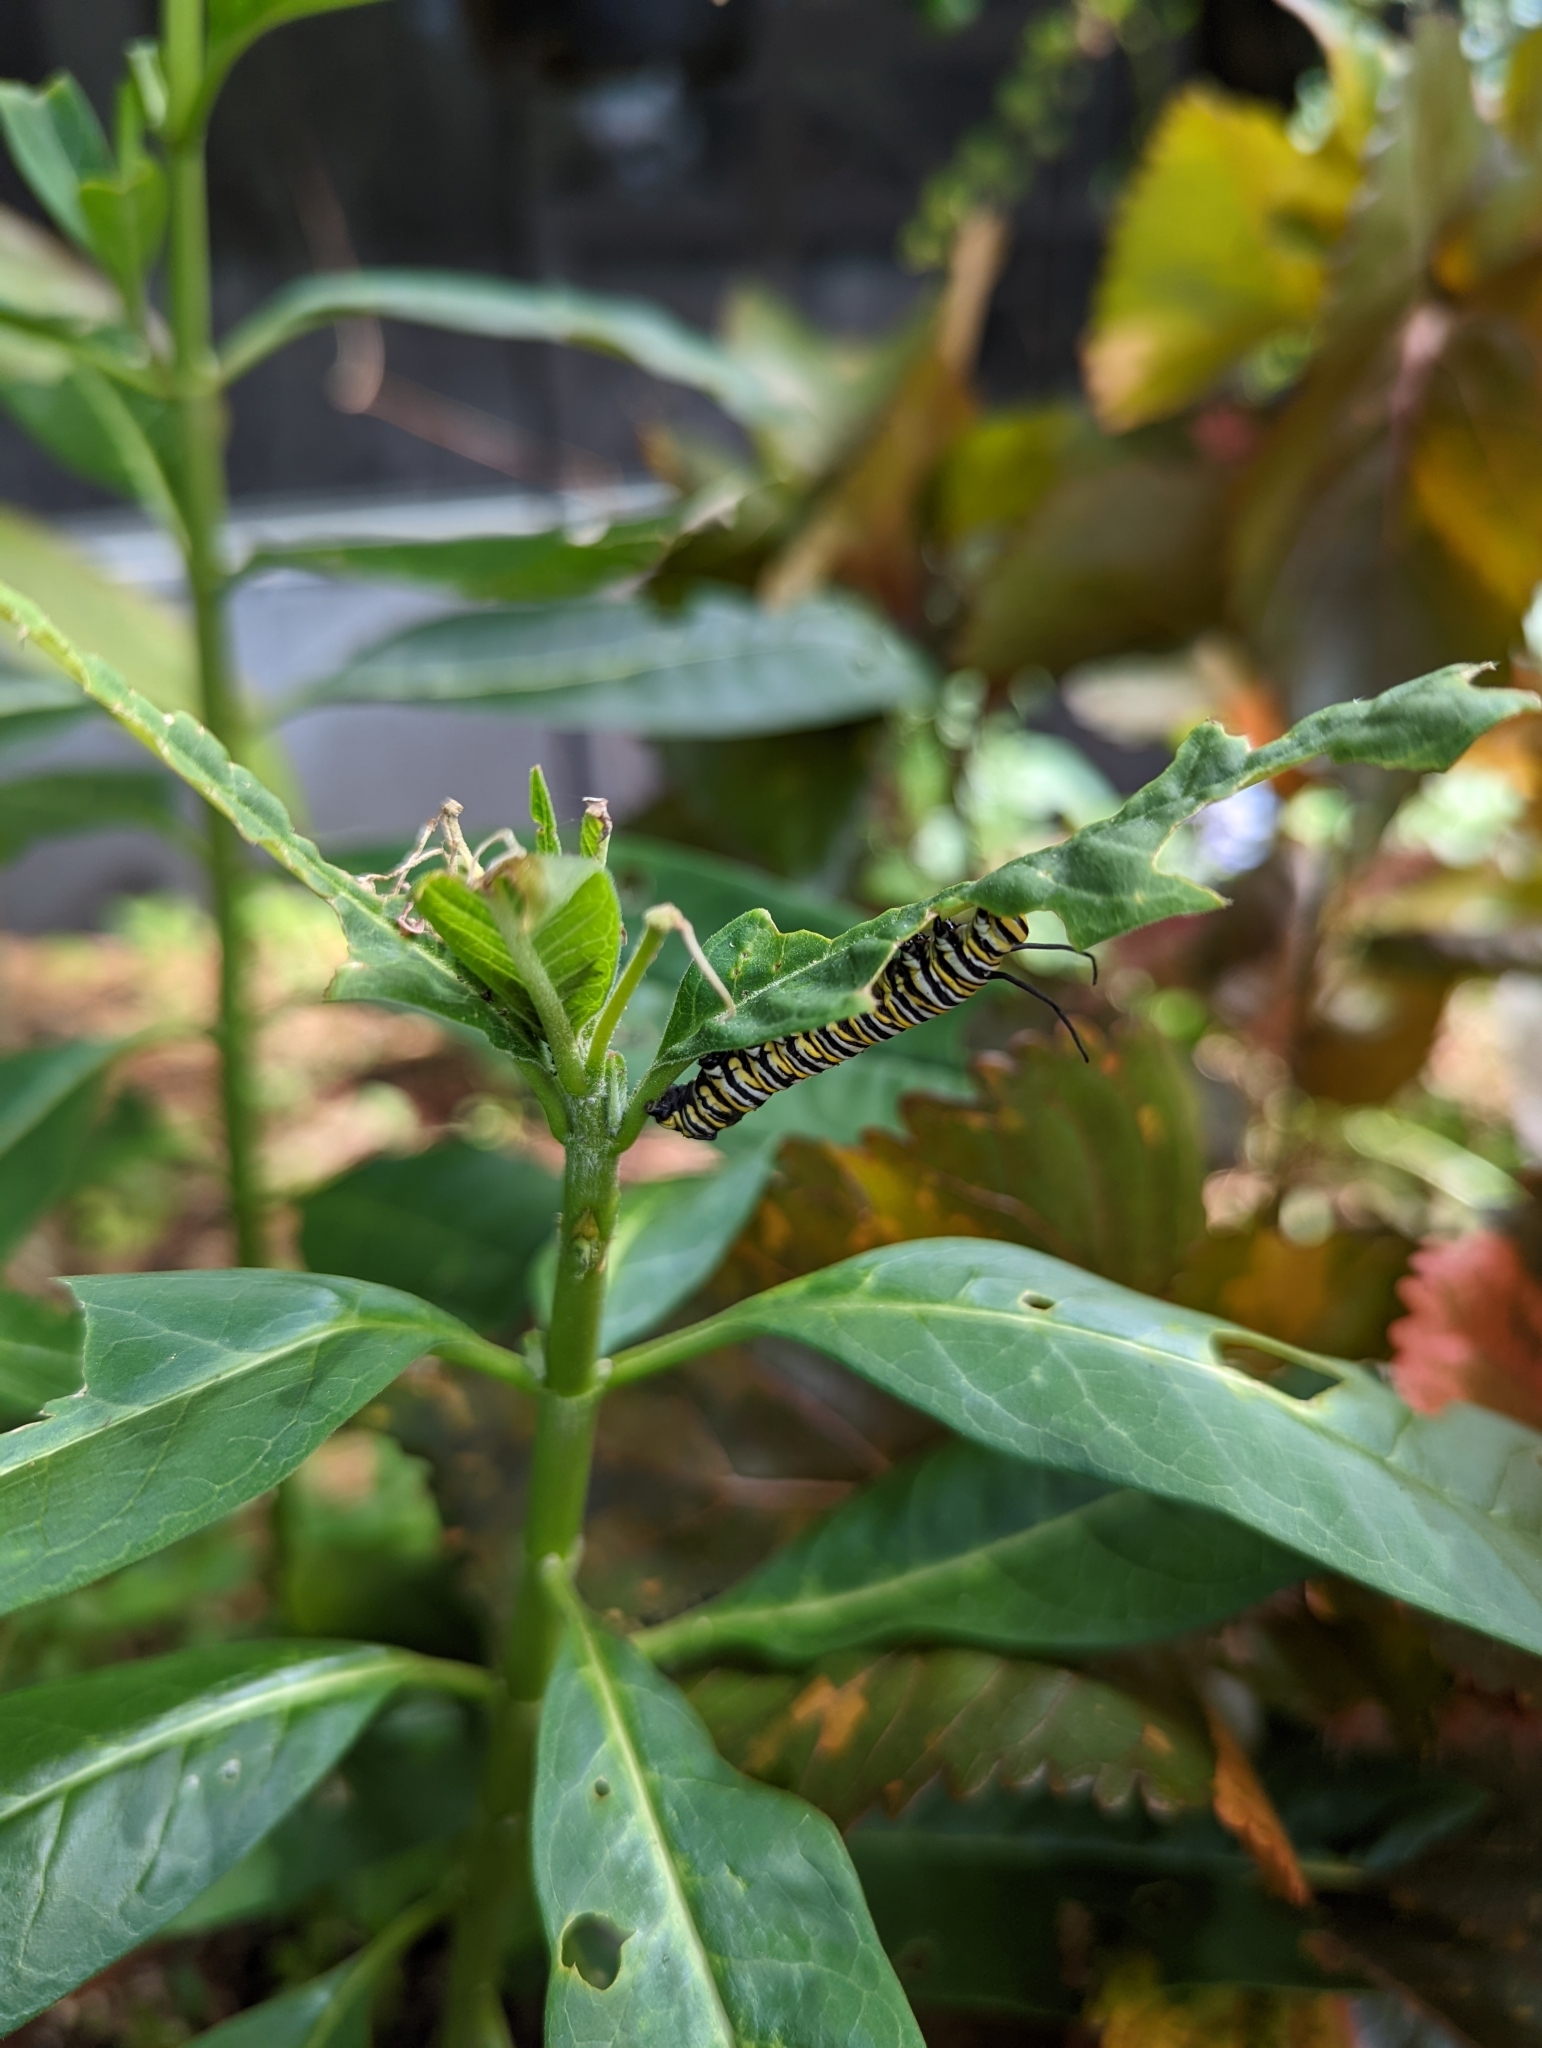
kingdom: Animalia
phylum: Arthropoda
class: Insecta
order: Lepidoptera
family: Nymphalidae
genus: Danaus
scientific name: Danaus plexippus
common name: Monarch
